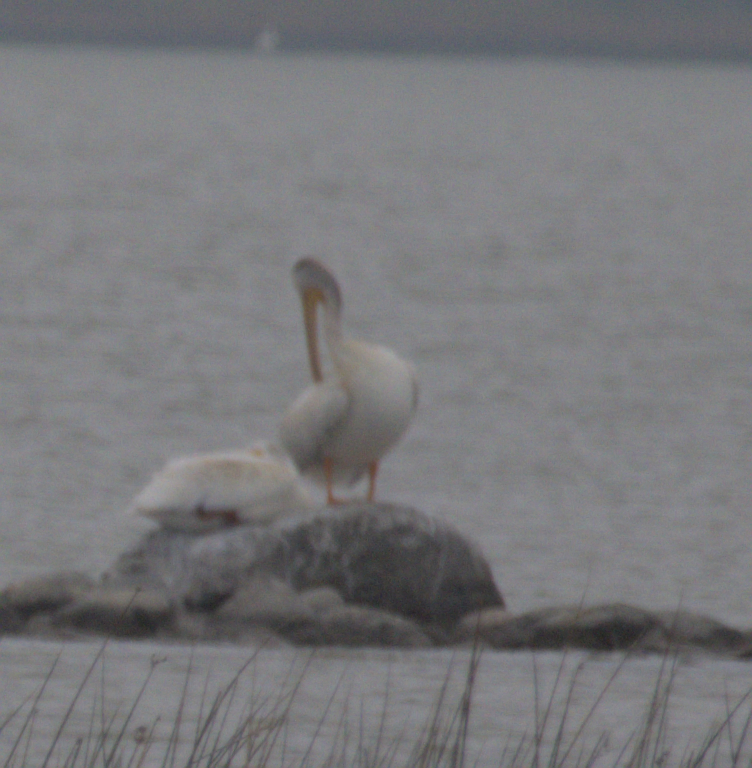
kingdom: Animalia
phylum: Chordata
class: Aves
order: Pelecaniformes
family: Pelecanidae
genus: Pelecanus
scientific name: Pelecanus erythrorhynchos
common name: American white pelican
